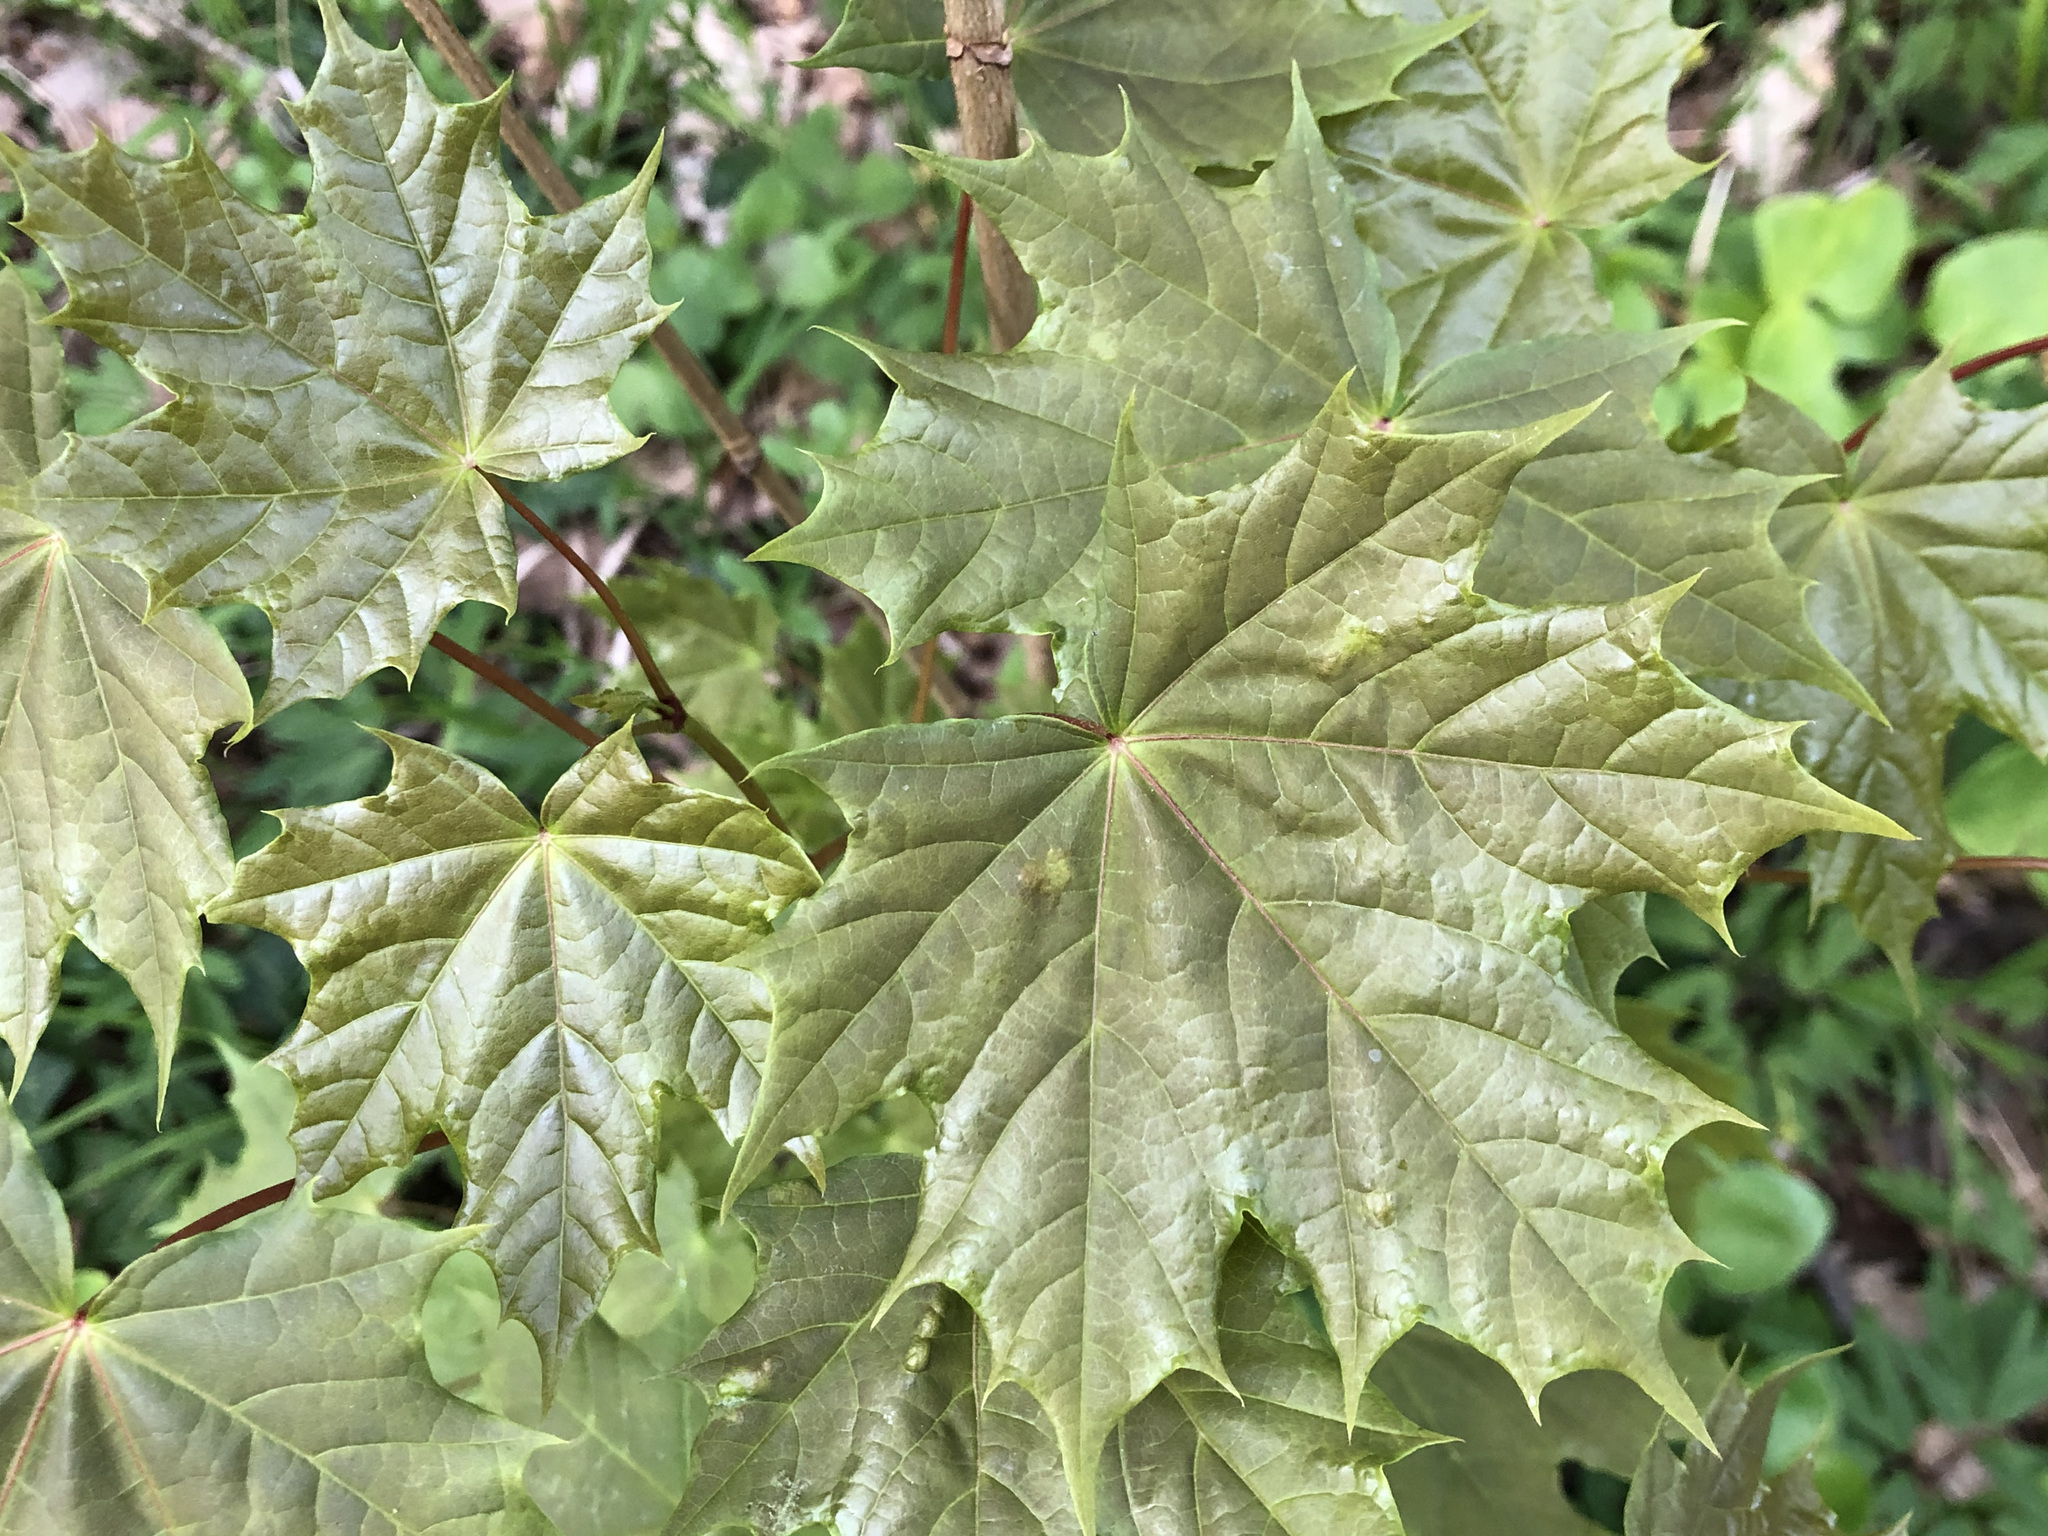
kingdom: Plantae
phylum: Tracheophyta
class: Magnoliopsida
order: Sapindales
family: Sapindaceae
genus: Acer
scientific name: Acer platanoides
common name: Norway maple
